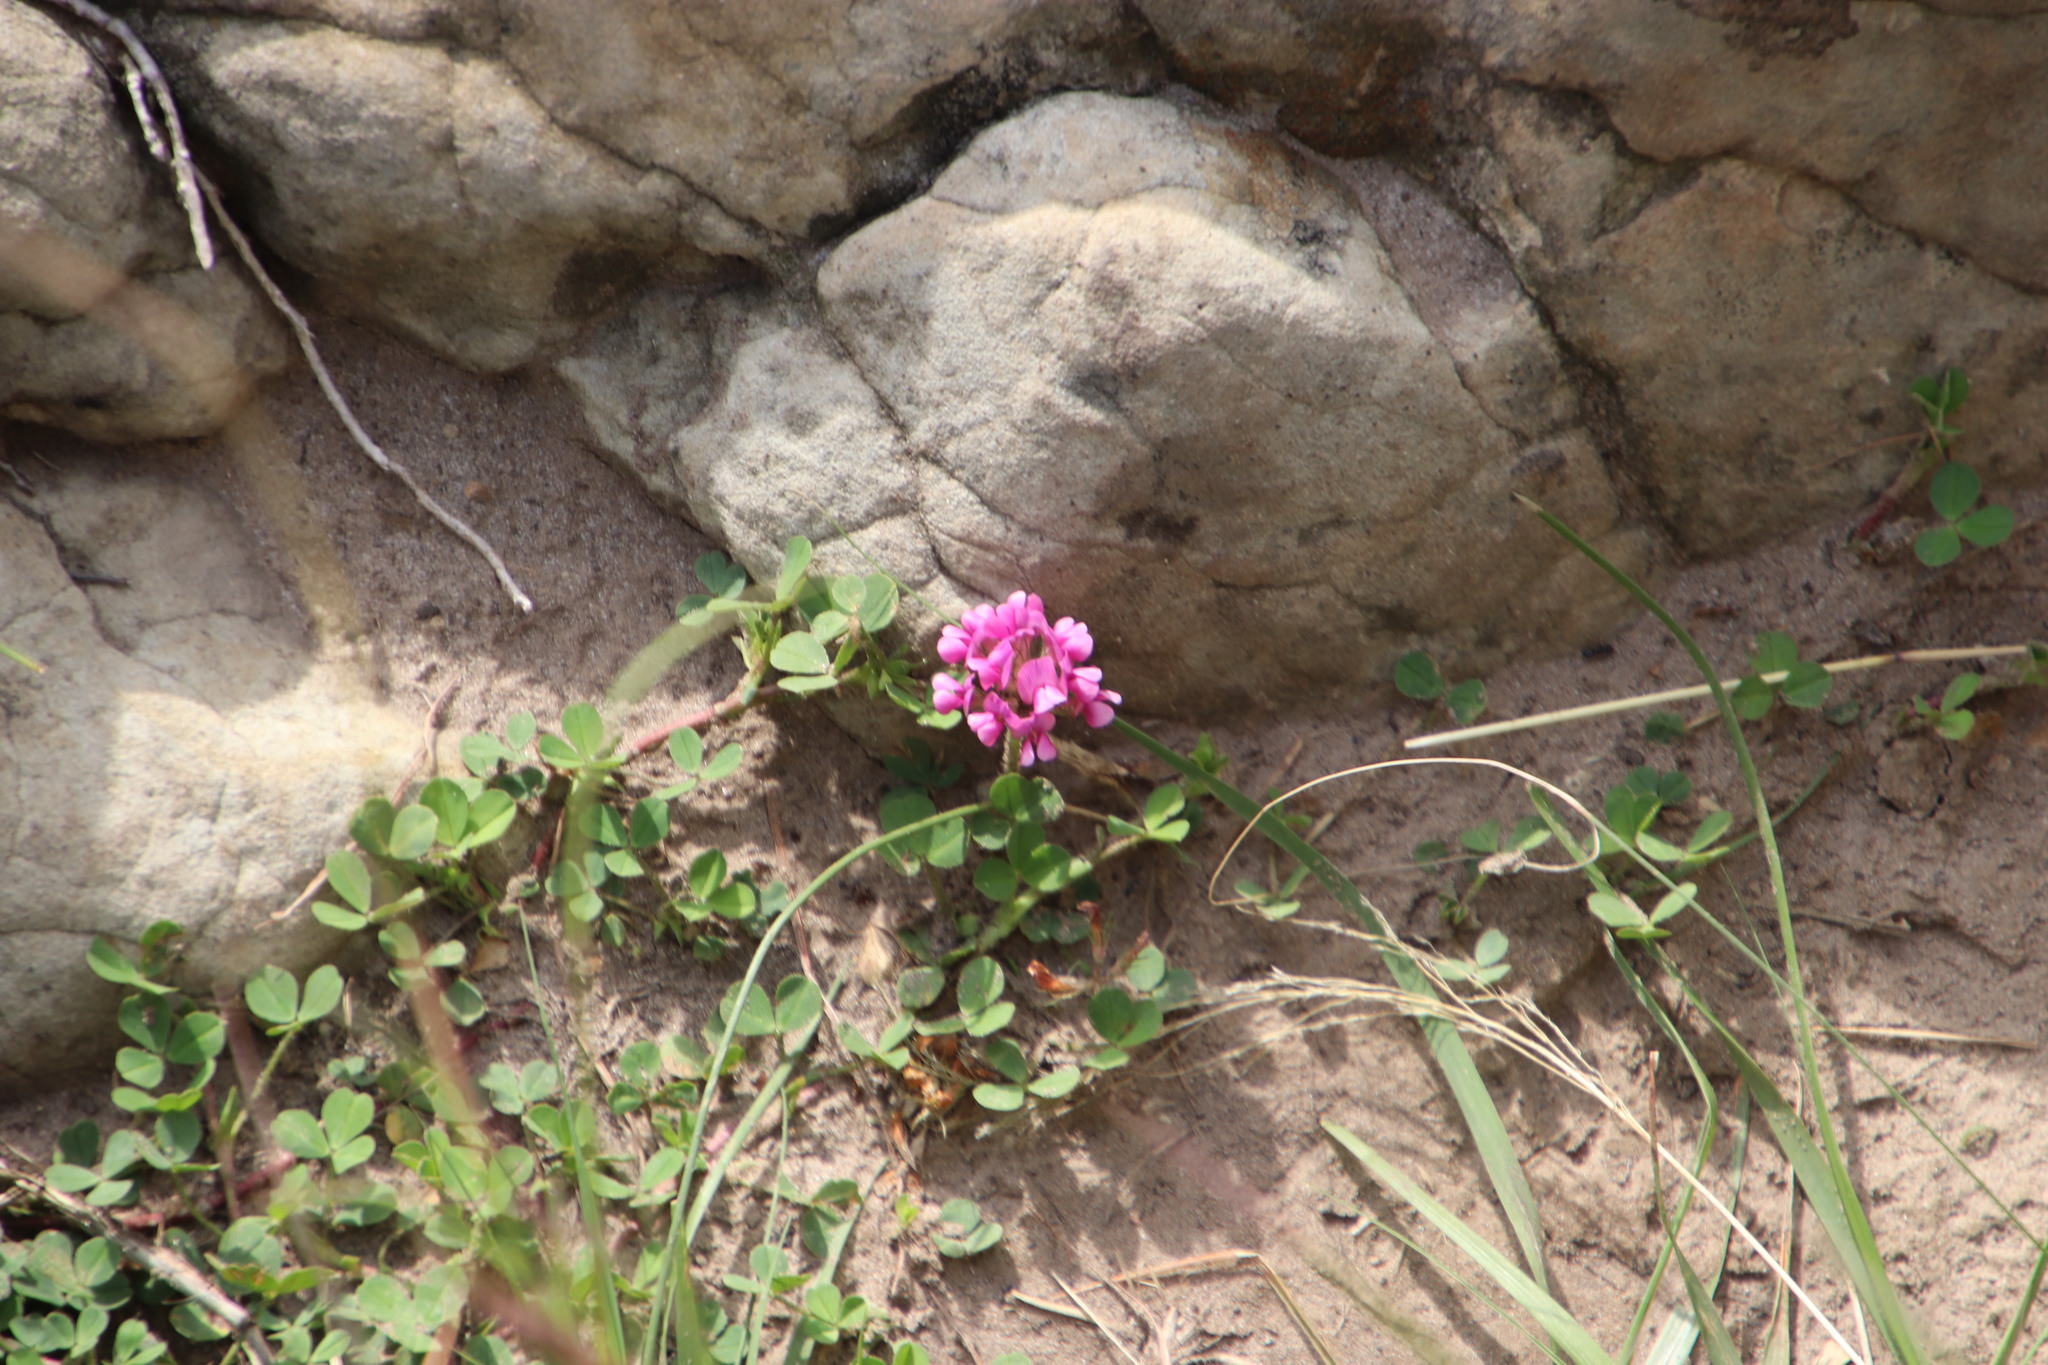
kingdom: Plantae
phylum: Tracheophyta
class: Magnoliopsida
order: Fabales
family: Fabaceae
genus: Trifolium
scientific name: Trifolium burchellianum
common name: Burchell's clover
